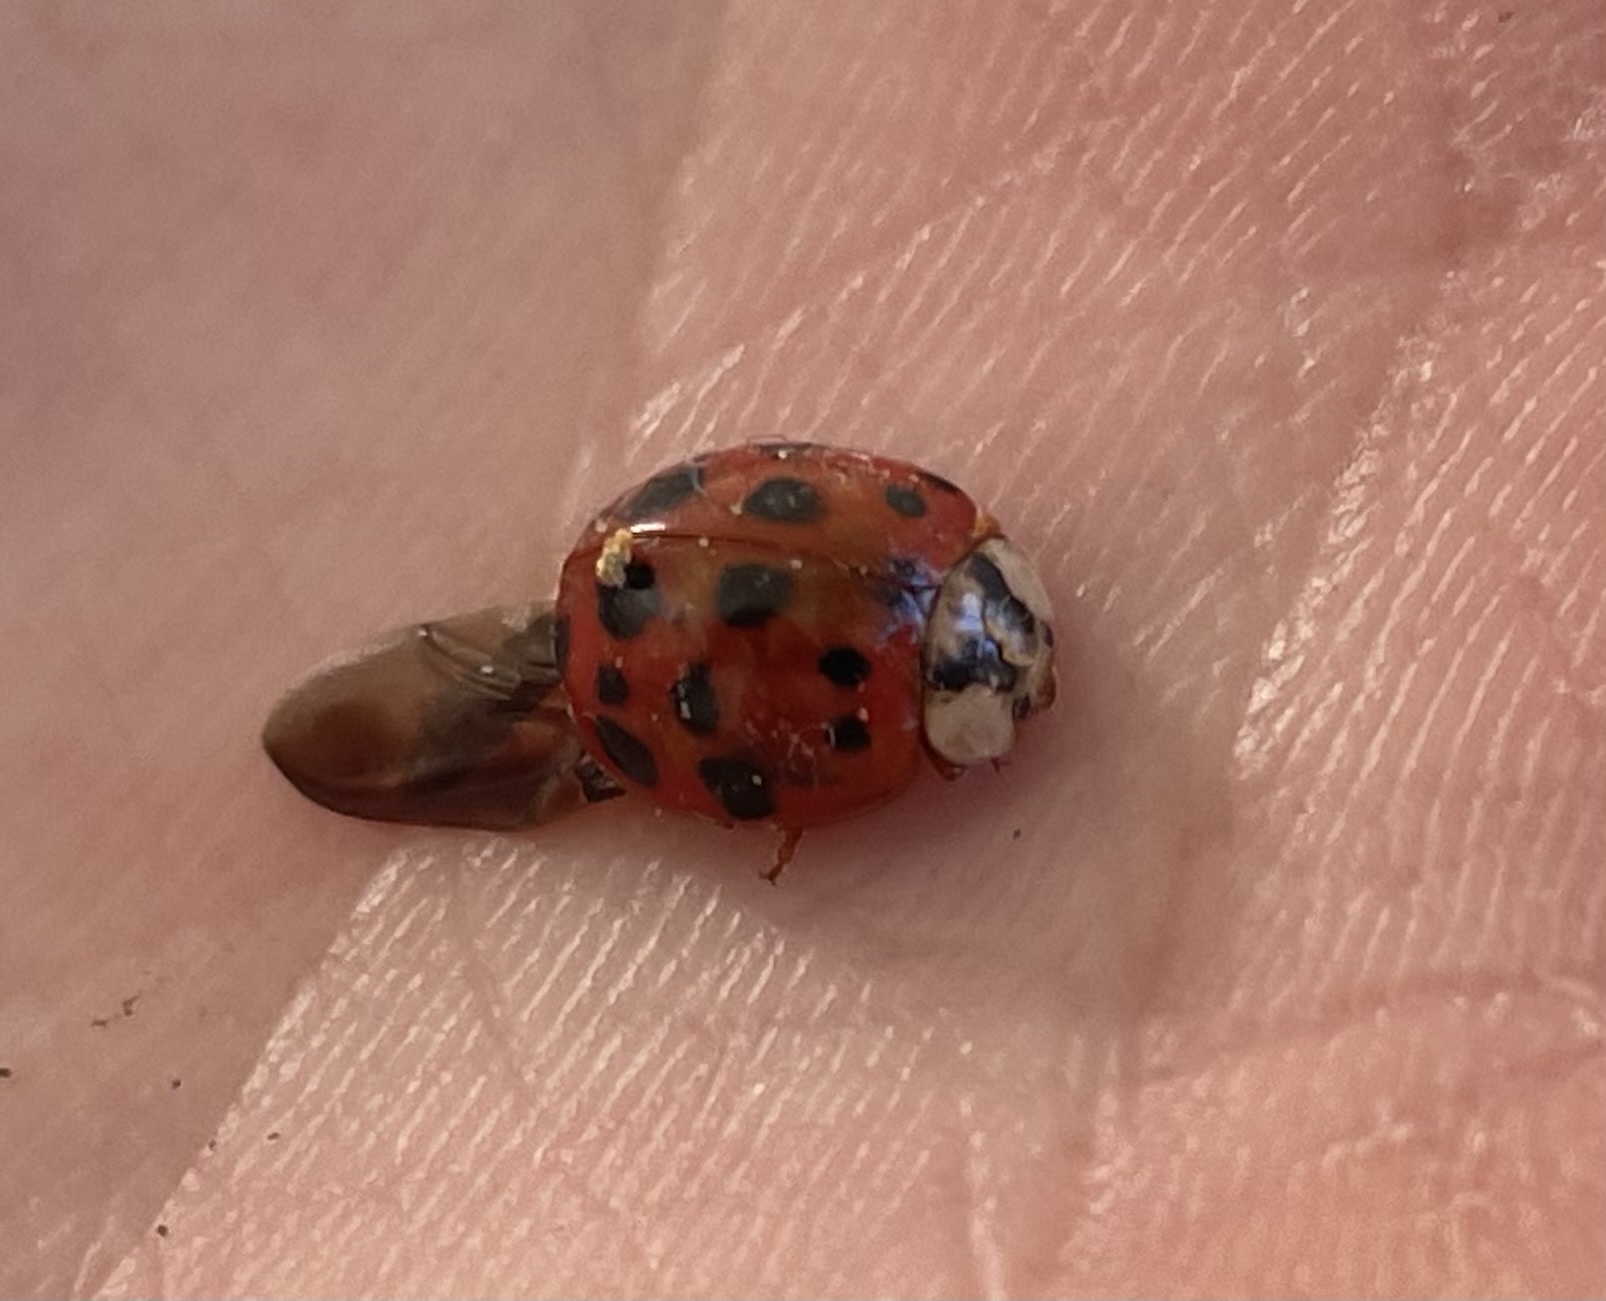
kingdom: Animalia
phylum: Arthropoda
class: Insecta
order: Coleoptera
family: Coccinellidae
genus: Harmonia
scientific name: Harmonia axyridis
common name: Harlequin ladybird
